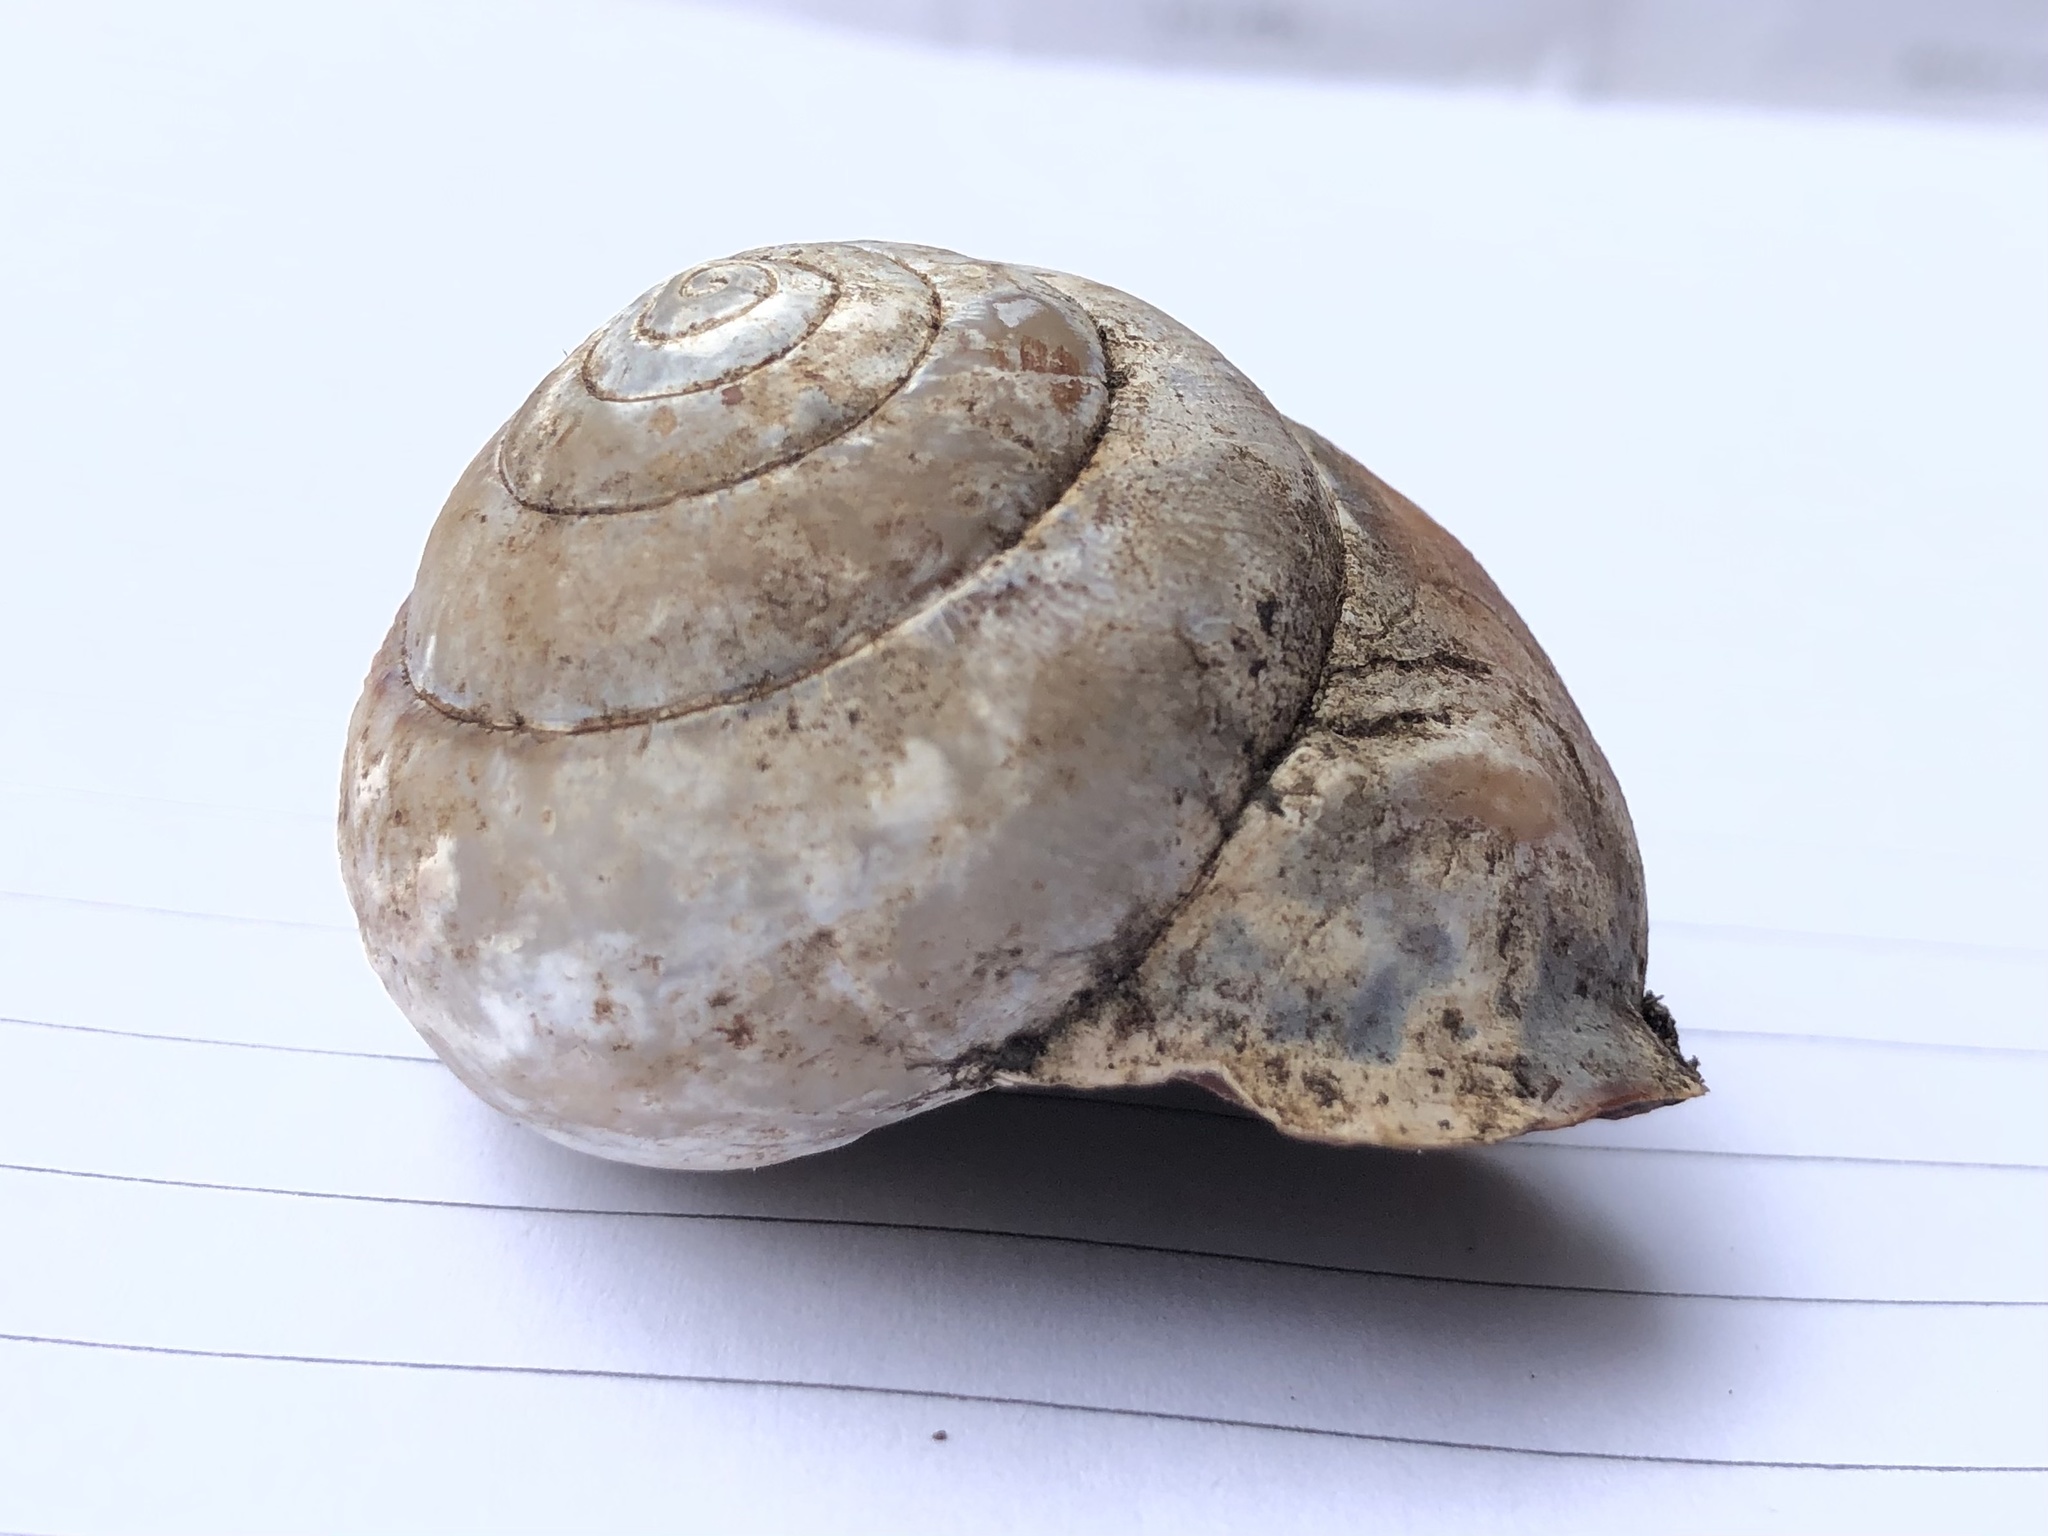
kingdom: Animalia
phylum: Mollusca
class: Gastropoda
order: Stylommatophora
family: Camaenidae
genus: Sphaerospira
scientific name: Sphaerospira fraseri
